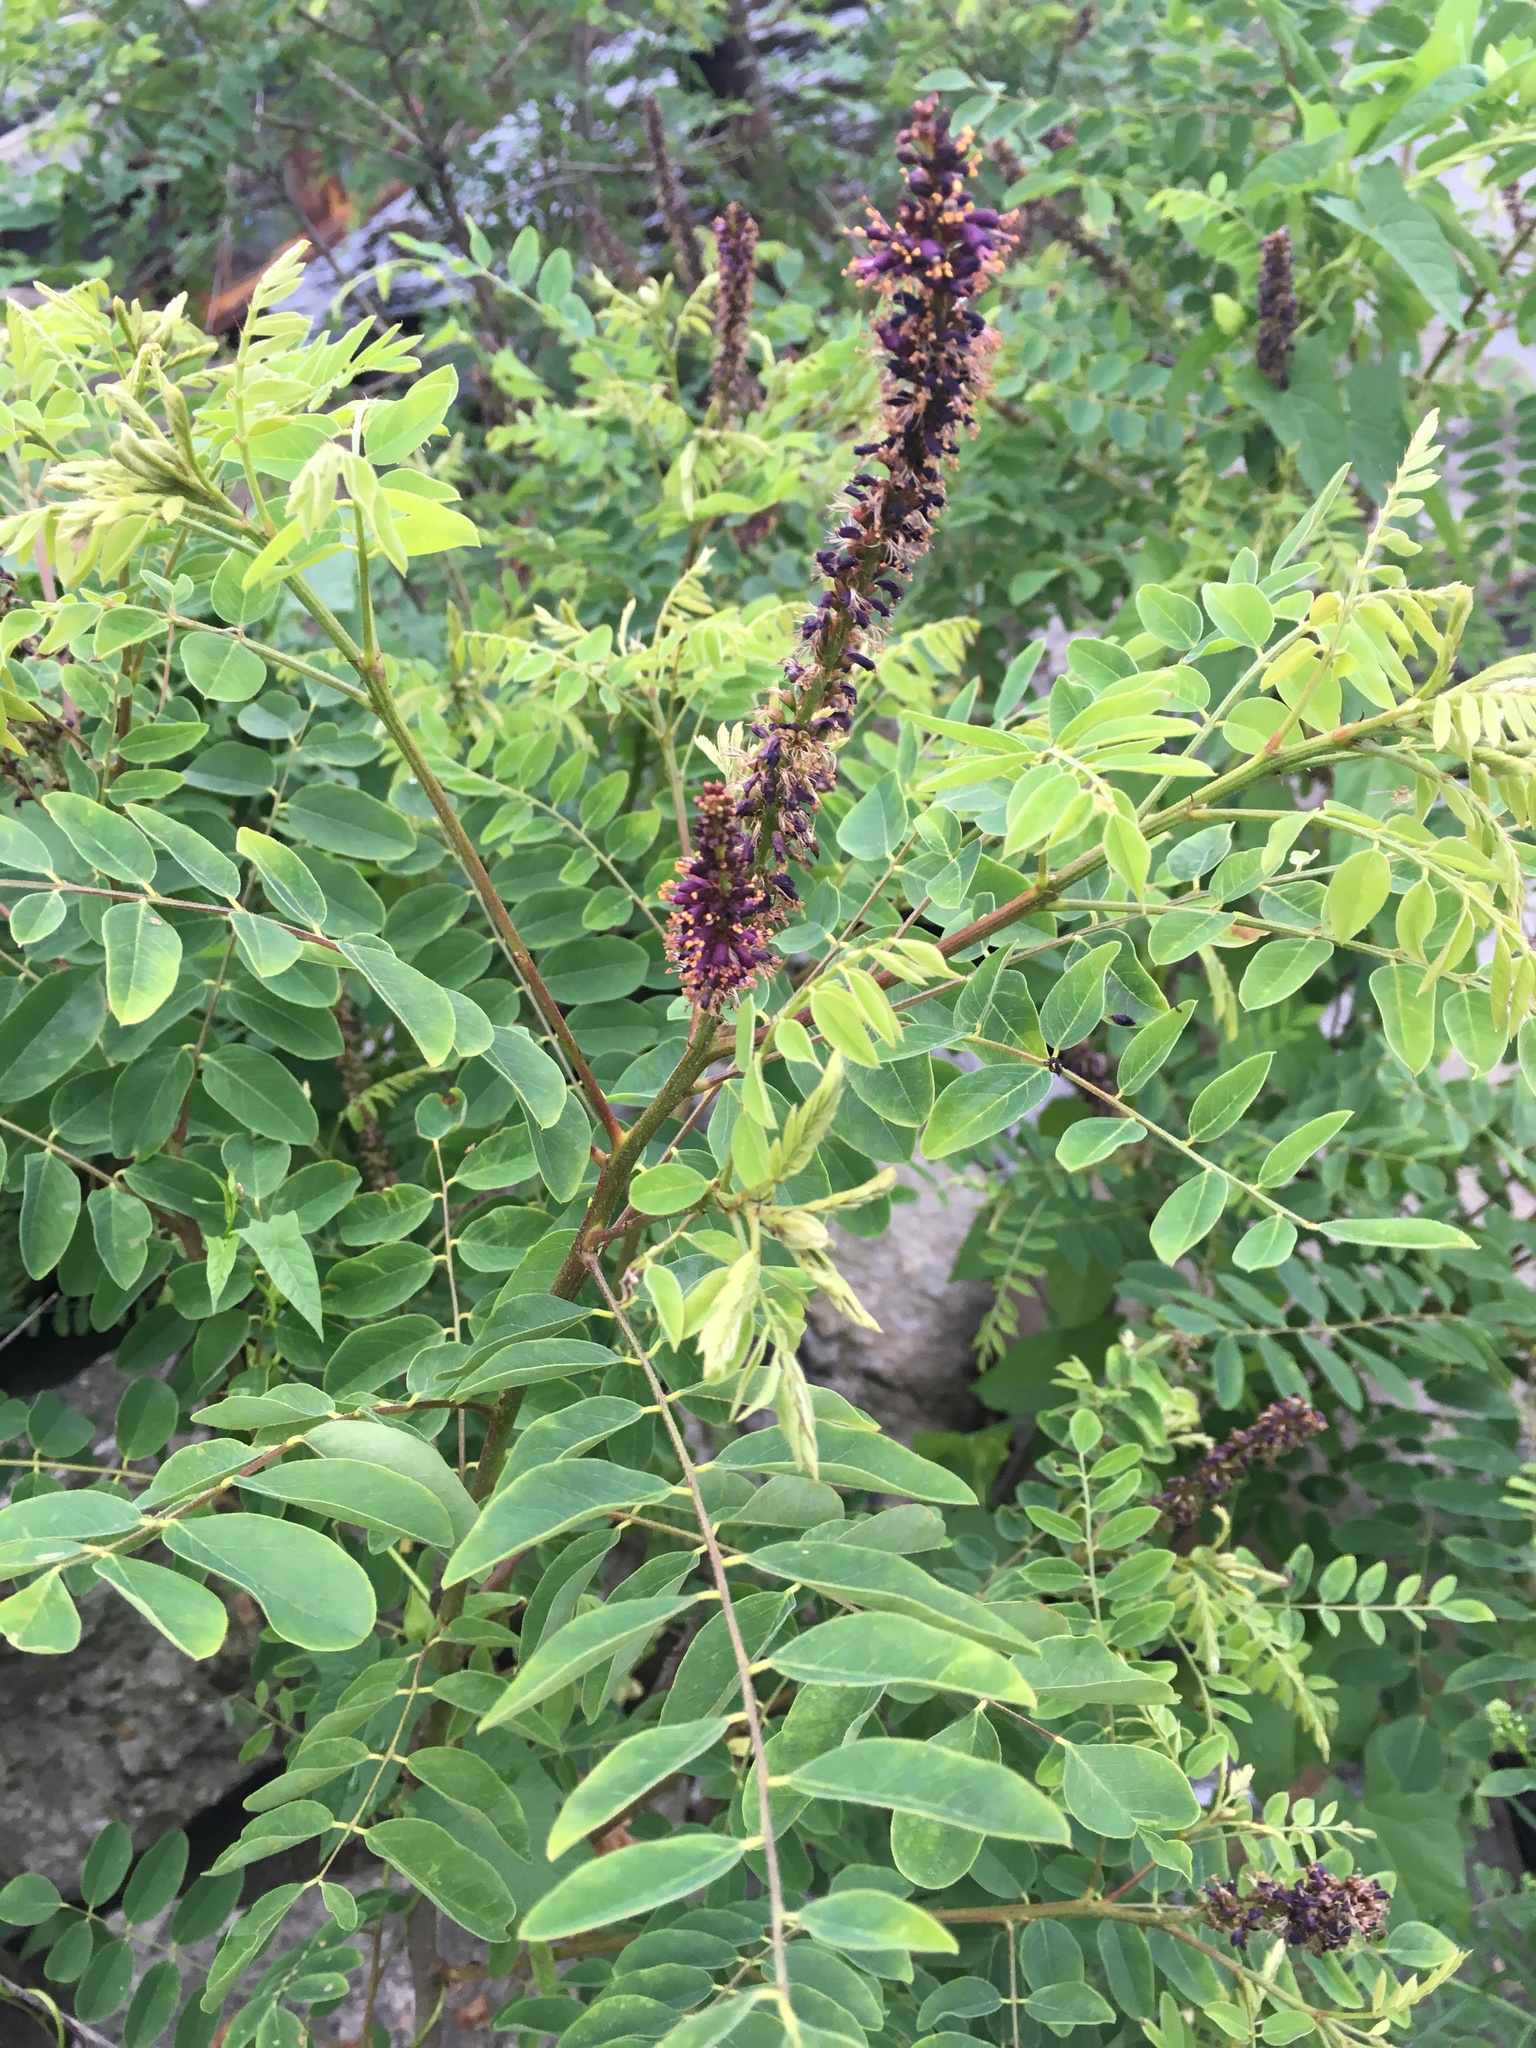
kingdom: Plantae
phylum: Tracheophyta
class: Magnoliopsida
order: Fabales
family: Fabaceae
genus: Amorpha
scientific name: Amorpha fruticosa
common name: False indigo
